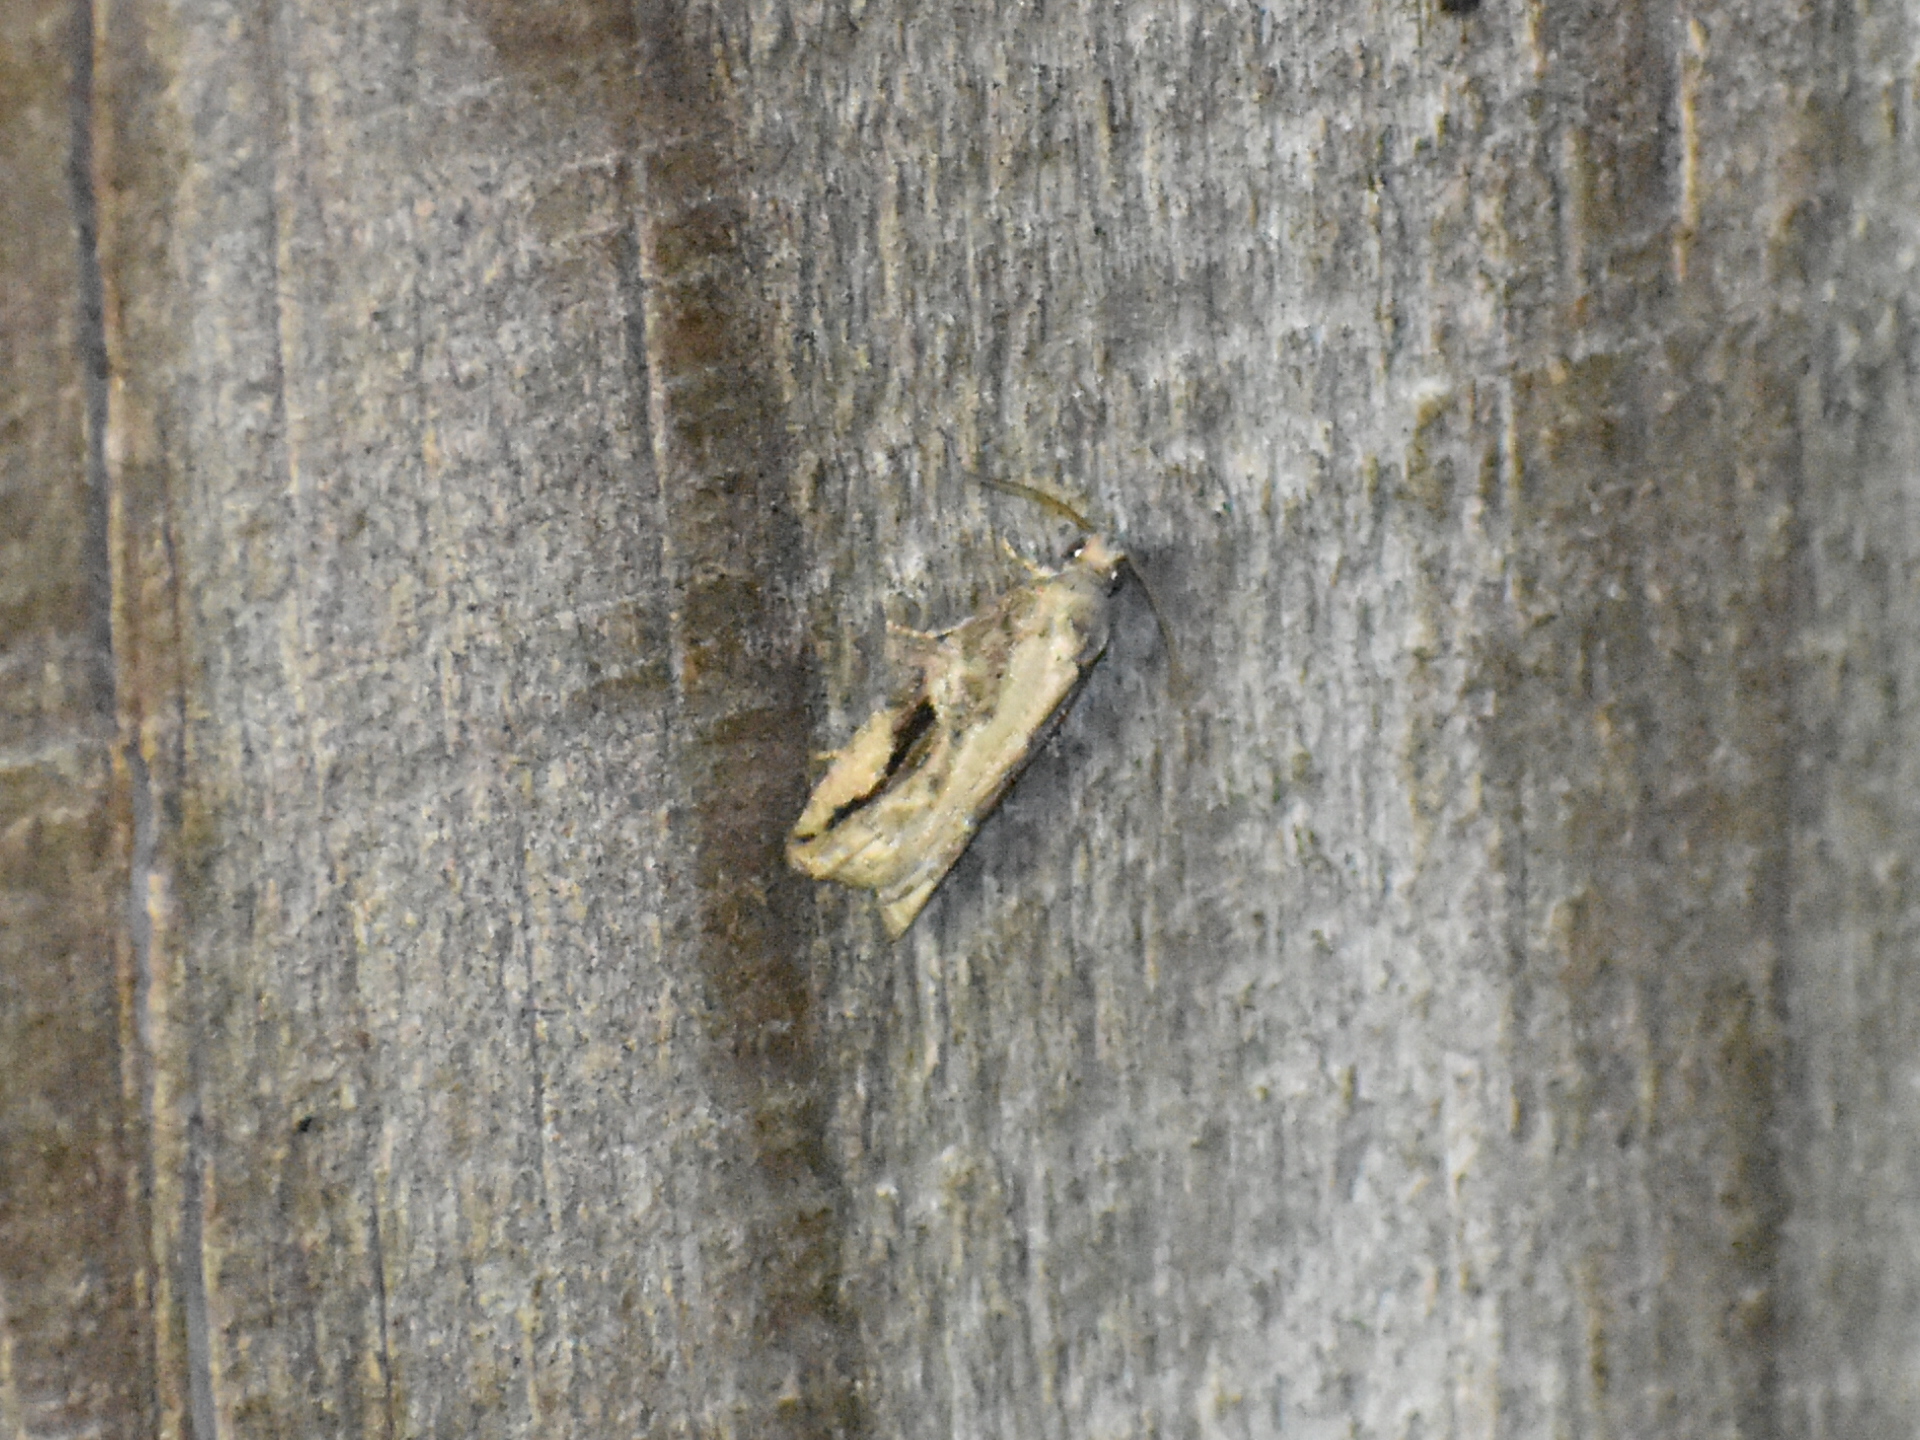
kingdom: Animalia
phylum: Arthropoda
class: Insecta
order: Lepidoptera
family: Tortricidae
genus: Proteoteras
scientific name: Proteoteras crescentana
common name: Black-crescent proteoteras moth
